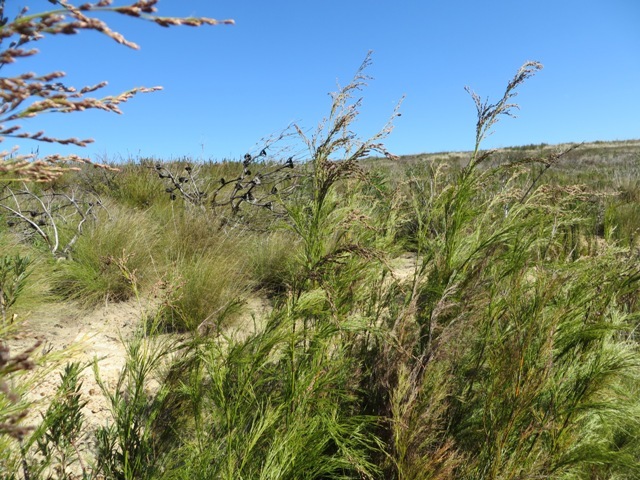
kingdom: Plantae
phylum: Tracheophyta
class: Magnoliopsida
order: Asterales
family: Asteraceae
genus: Leysera
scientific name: Leysera tenella
